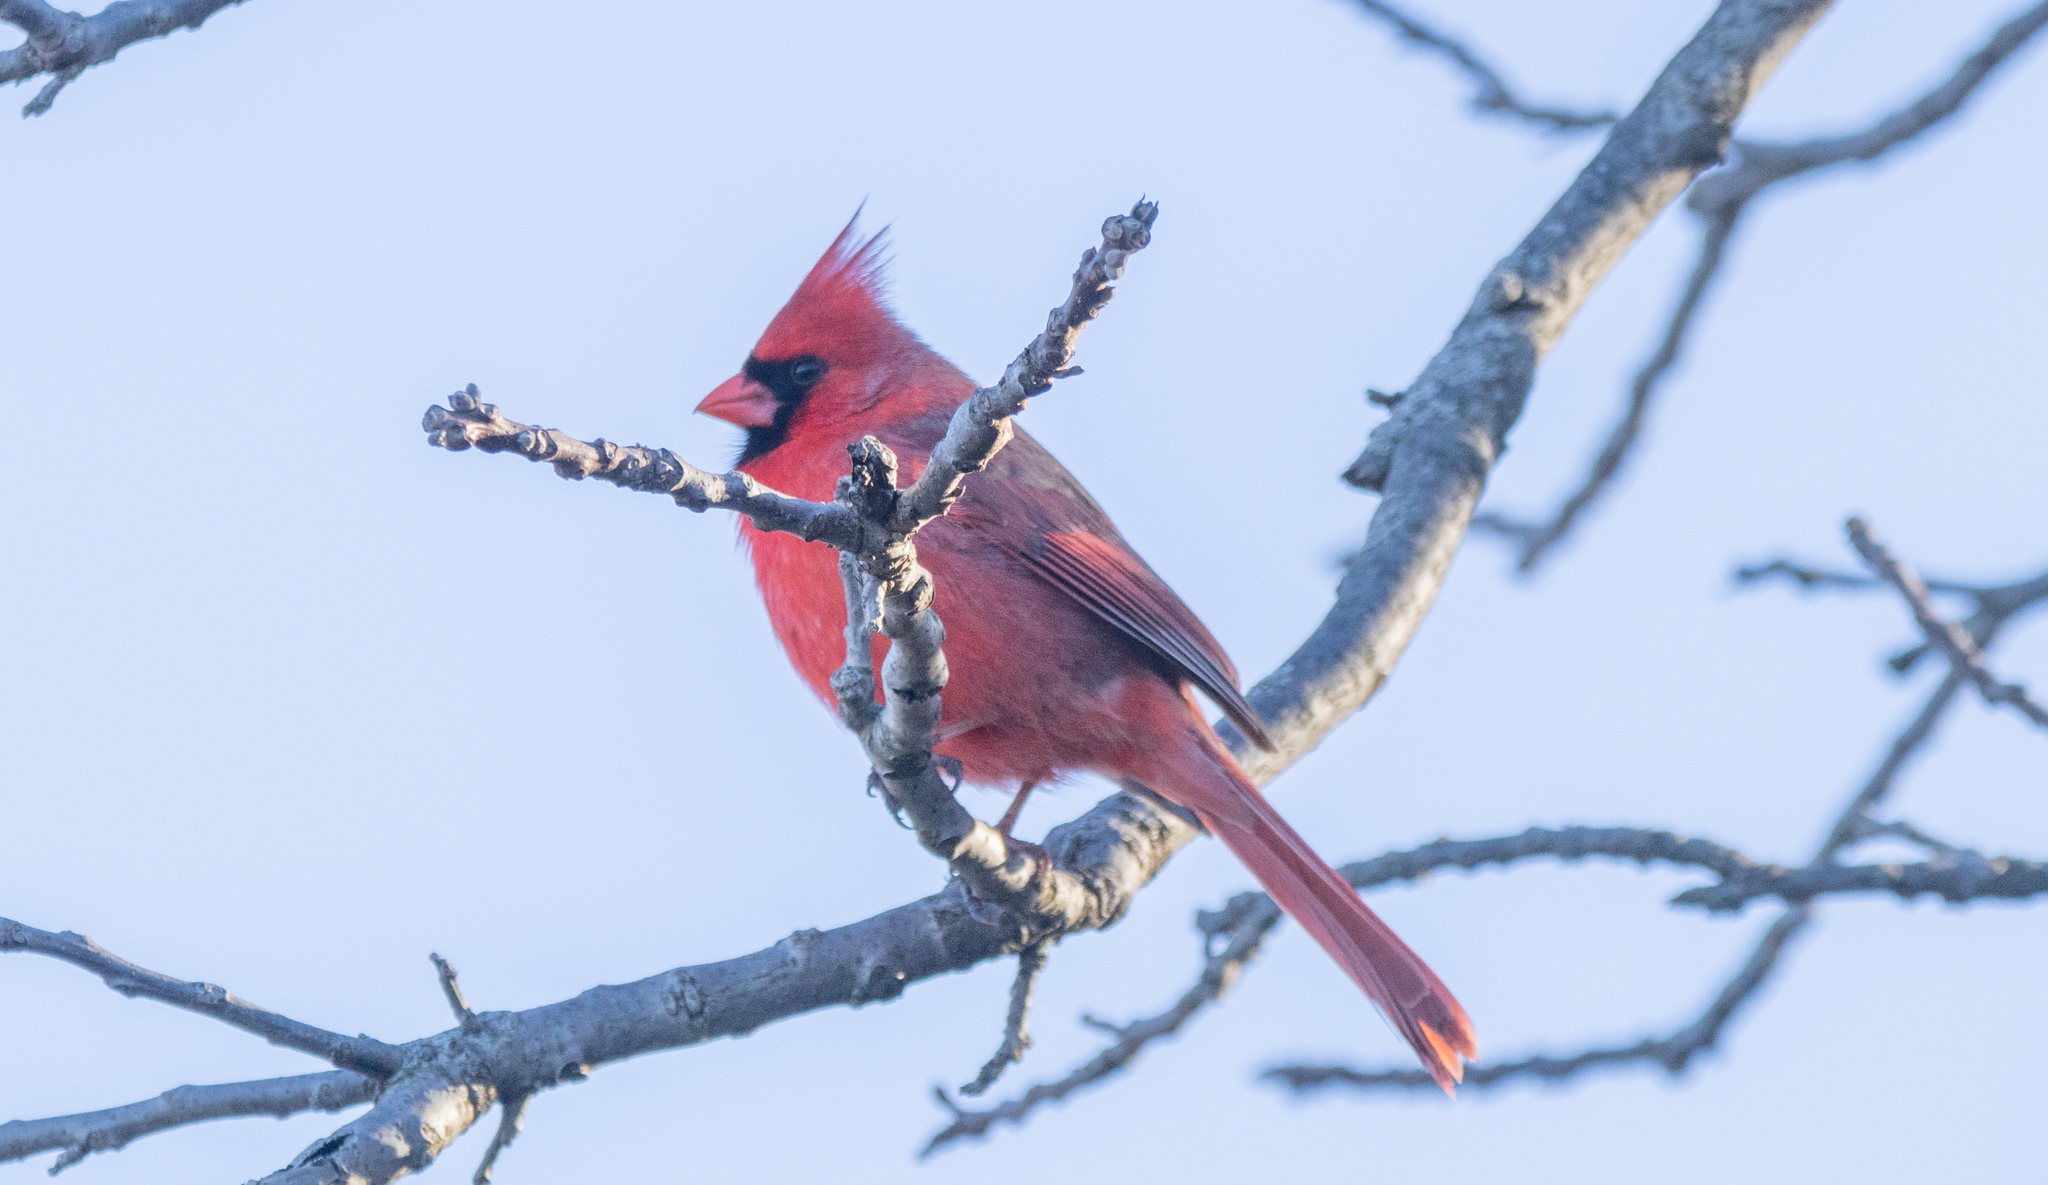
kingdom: Animalia
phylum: Chordata
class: Aves
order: Passeriformes
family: Cardinalidae
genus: Cardinalis
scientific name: Cardinalis cardinalis
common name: Northern cardinal
